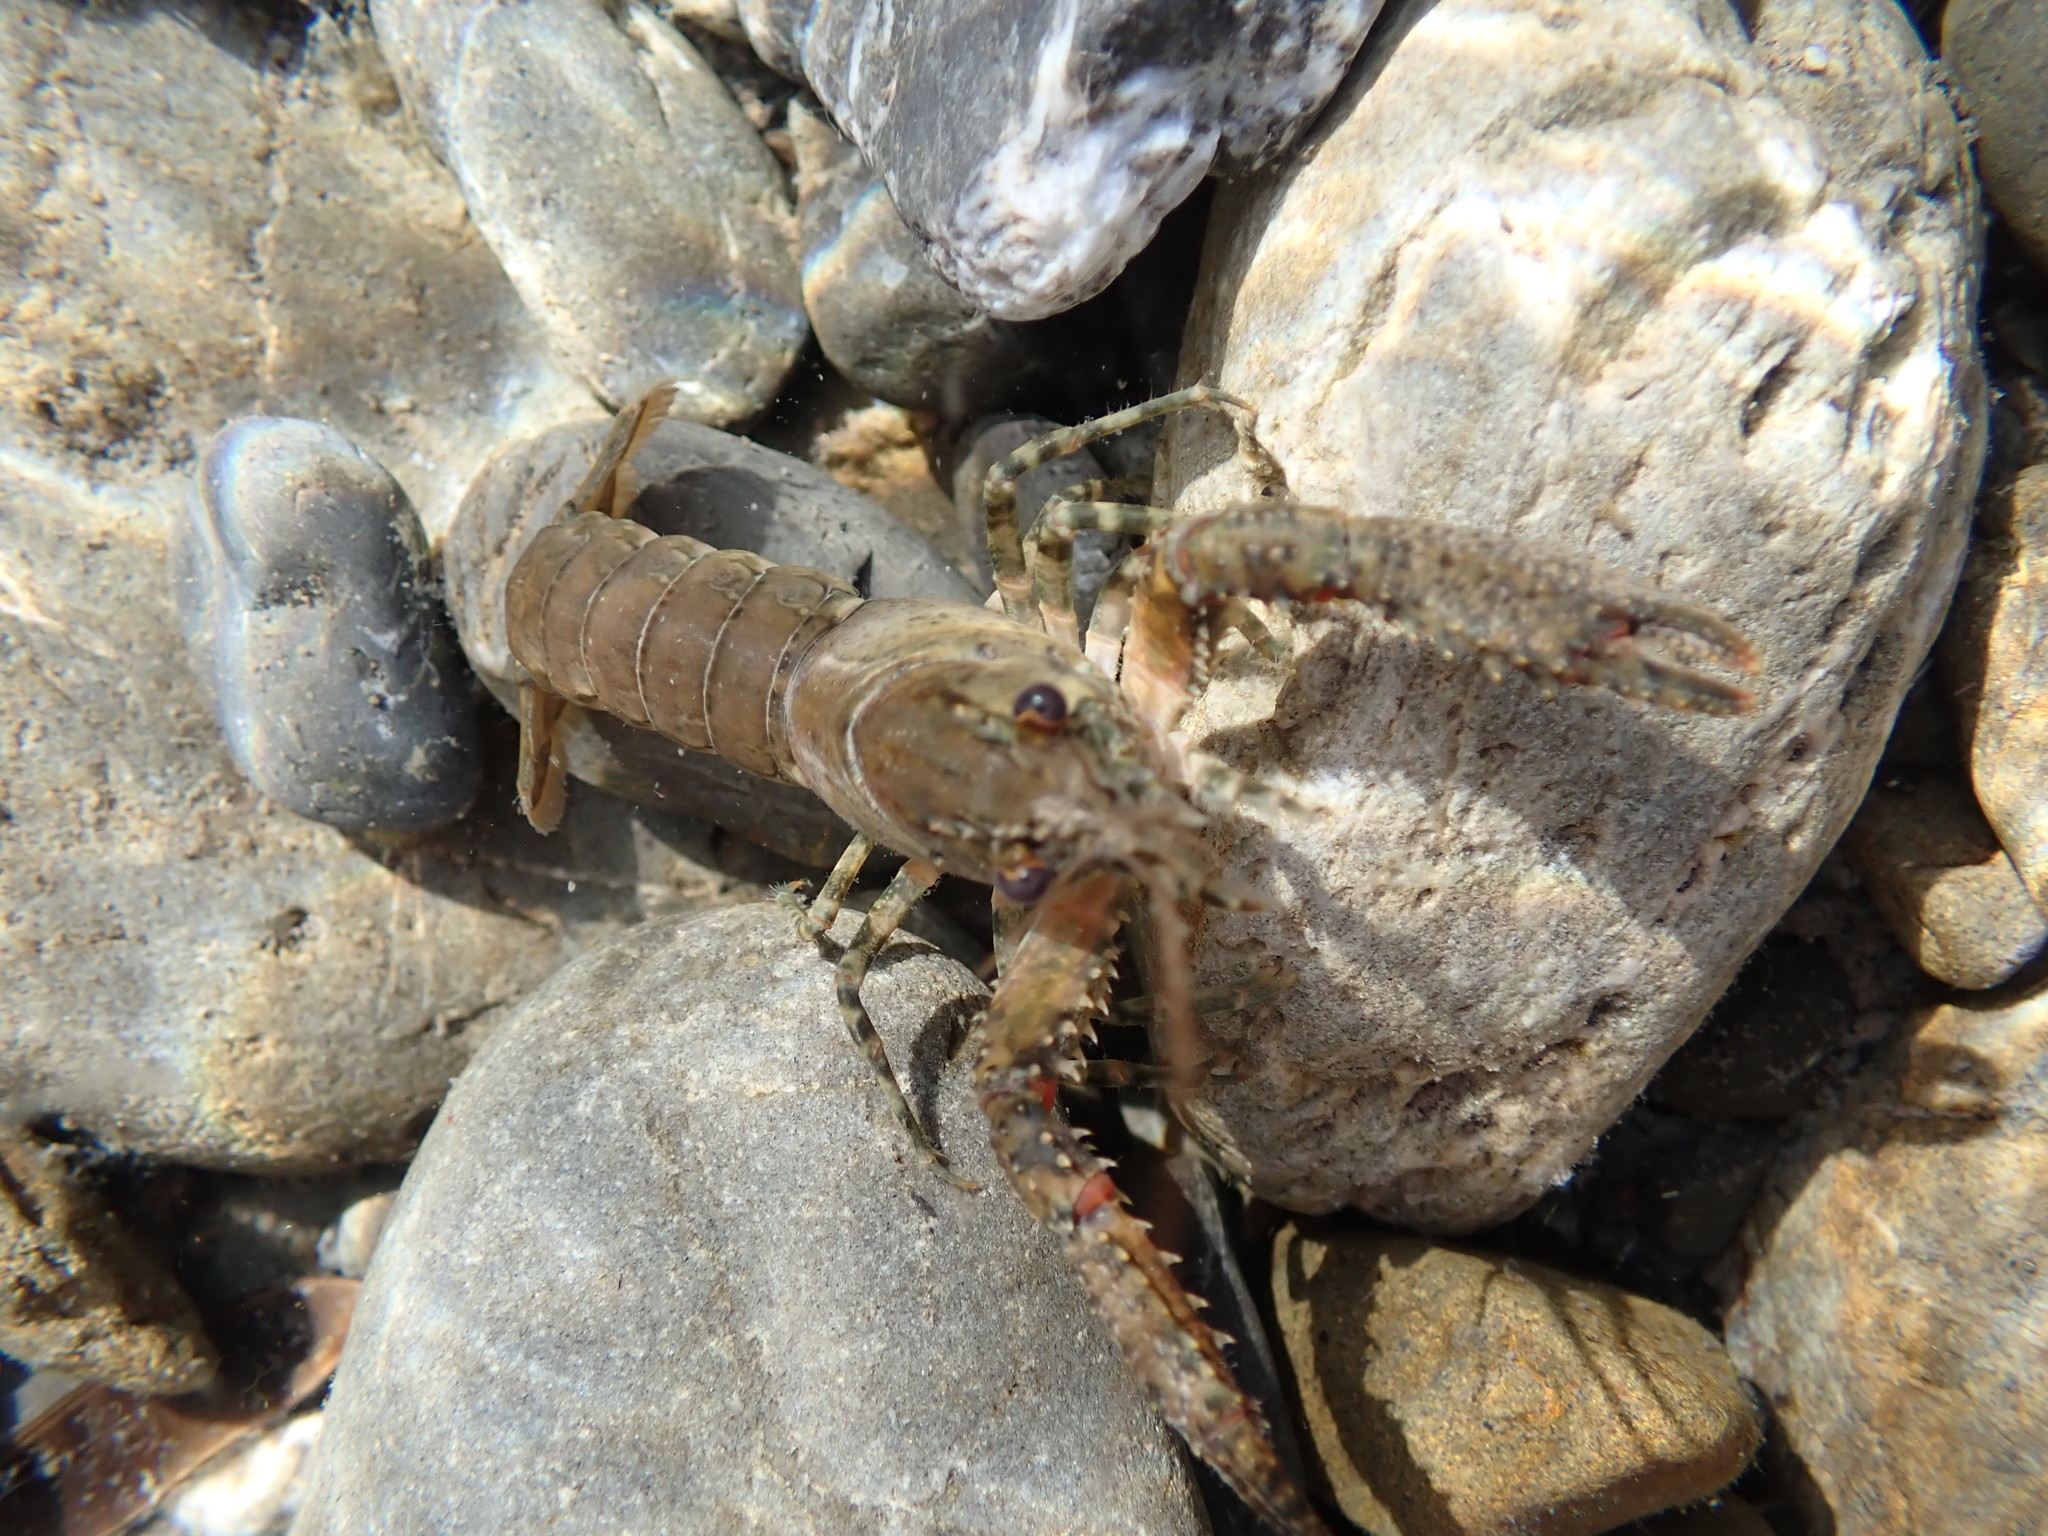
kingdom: Animalia
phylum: Arthropoda
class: Malacostraca
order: Decapoda
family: Parastacidae
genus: Paranephrops
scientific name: Paranephrops planifrons
